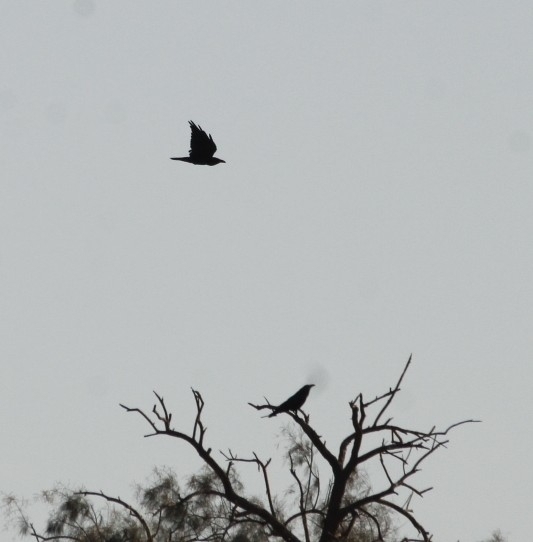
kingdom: Animalia
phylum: Chordata
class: Aves
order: Passeriformes
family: Corvidae
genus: Corvus
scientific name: Corvus corax
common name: Common raven
